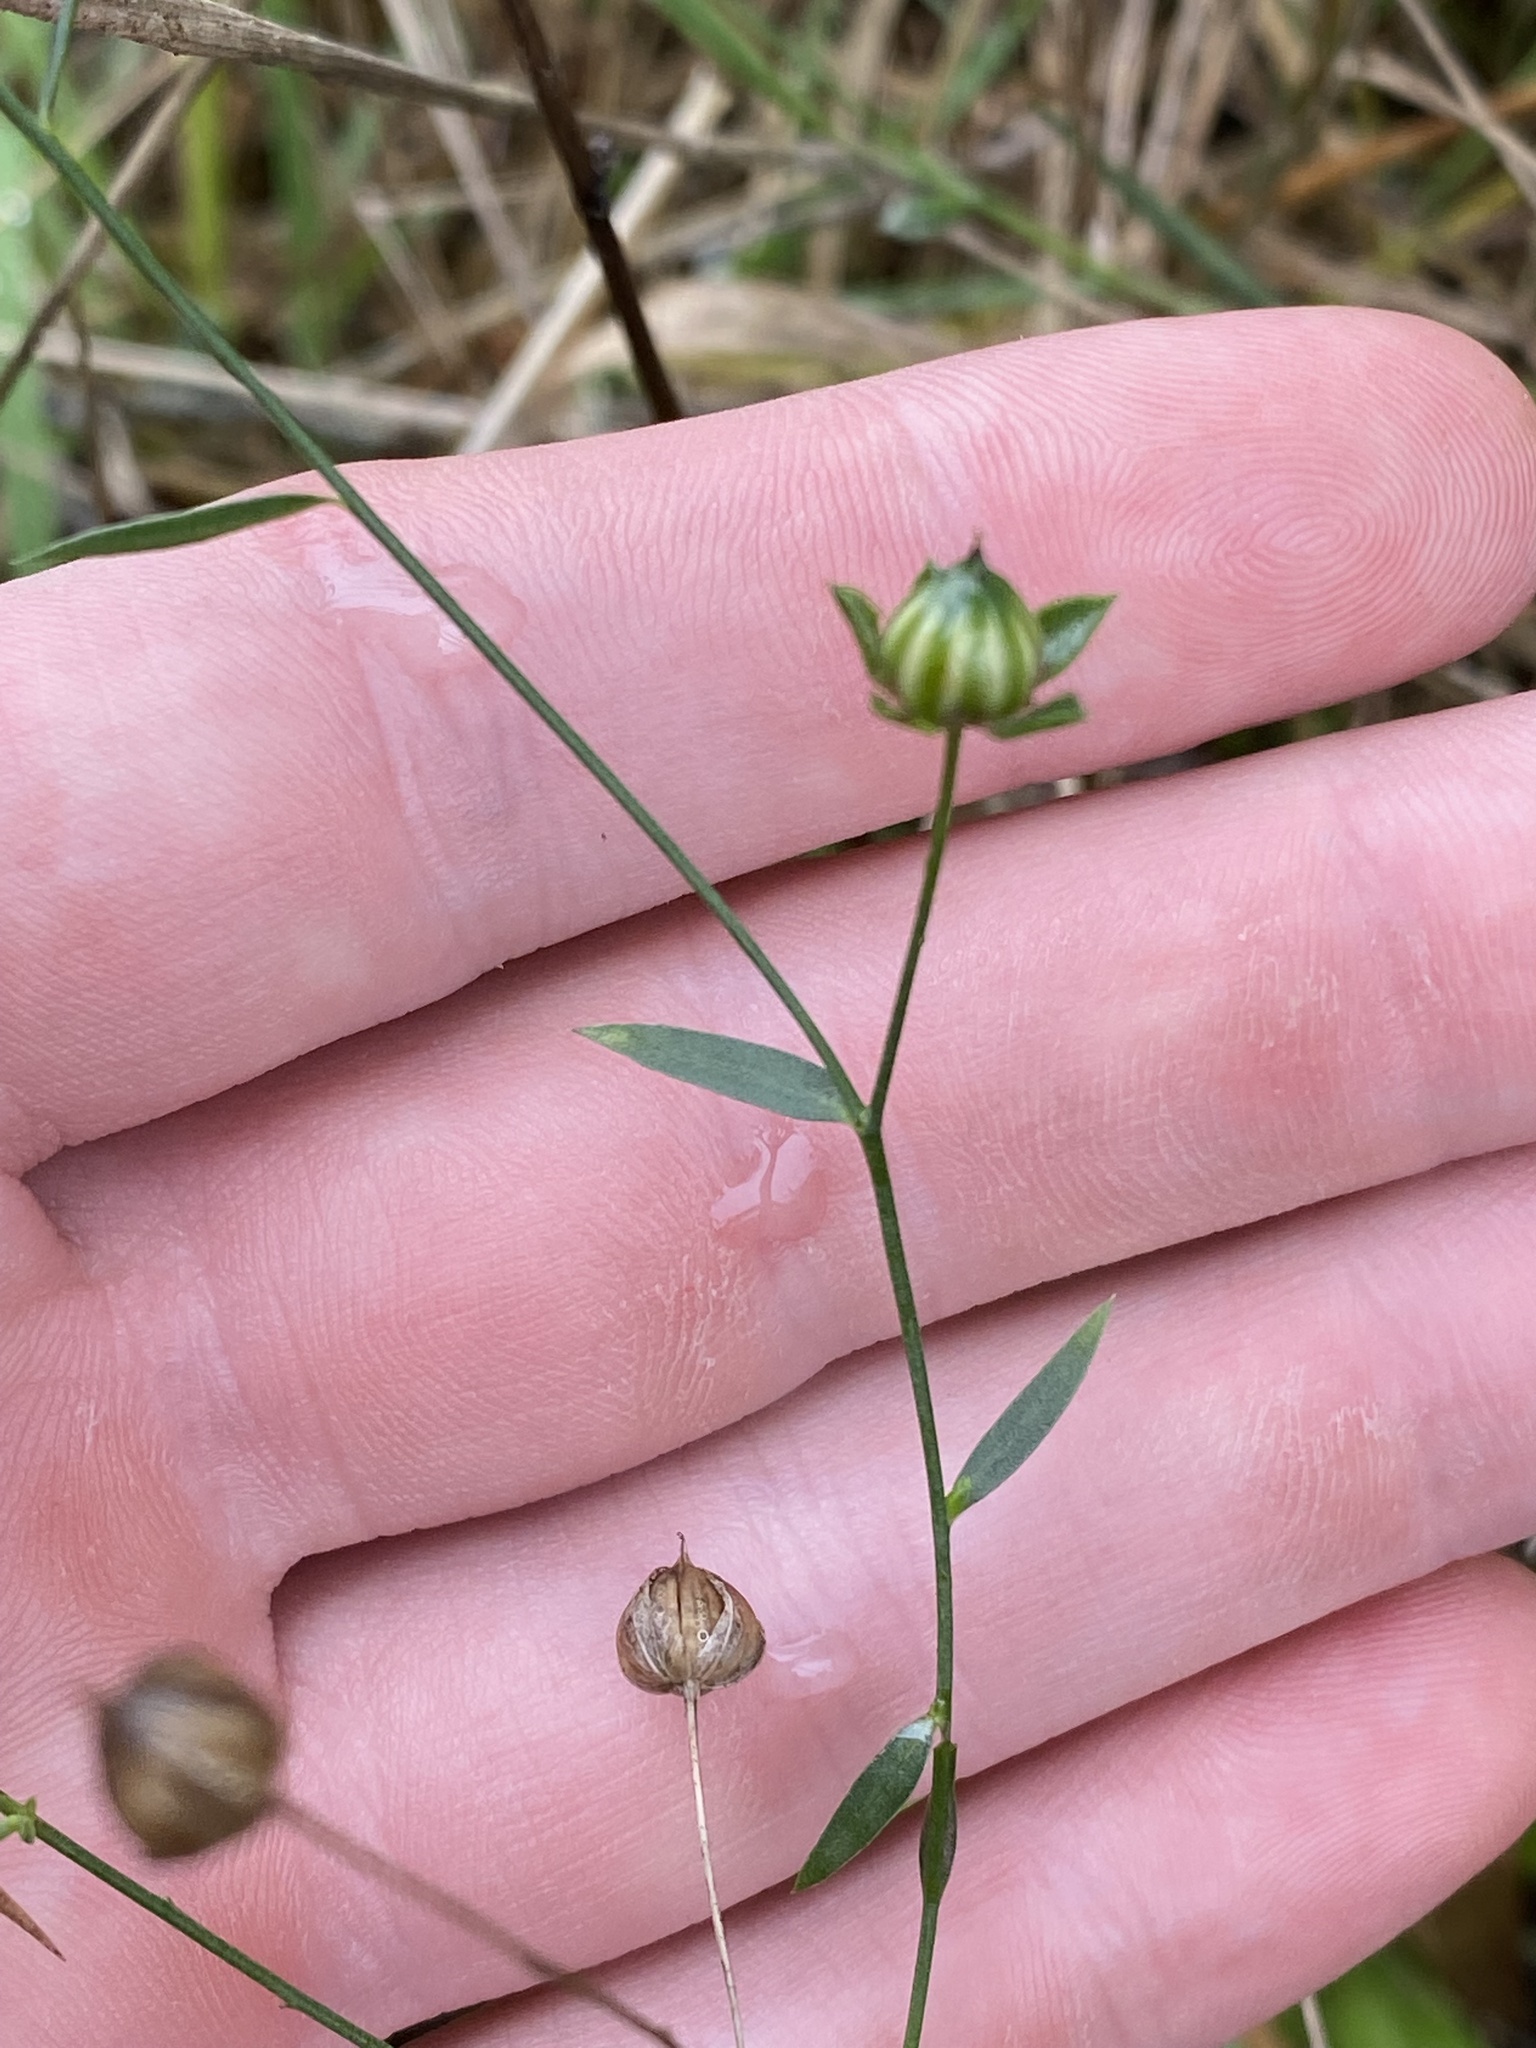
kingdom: Plantae
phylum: Tracheophyta
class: Magnoliopsida
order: Malpighiales
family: Linaceae
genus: Linum
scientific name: Linum bienne
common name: Pale flax
